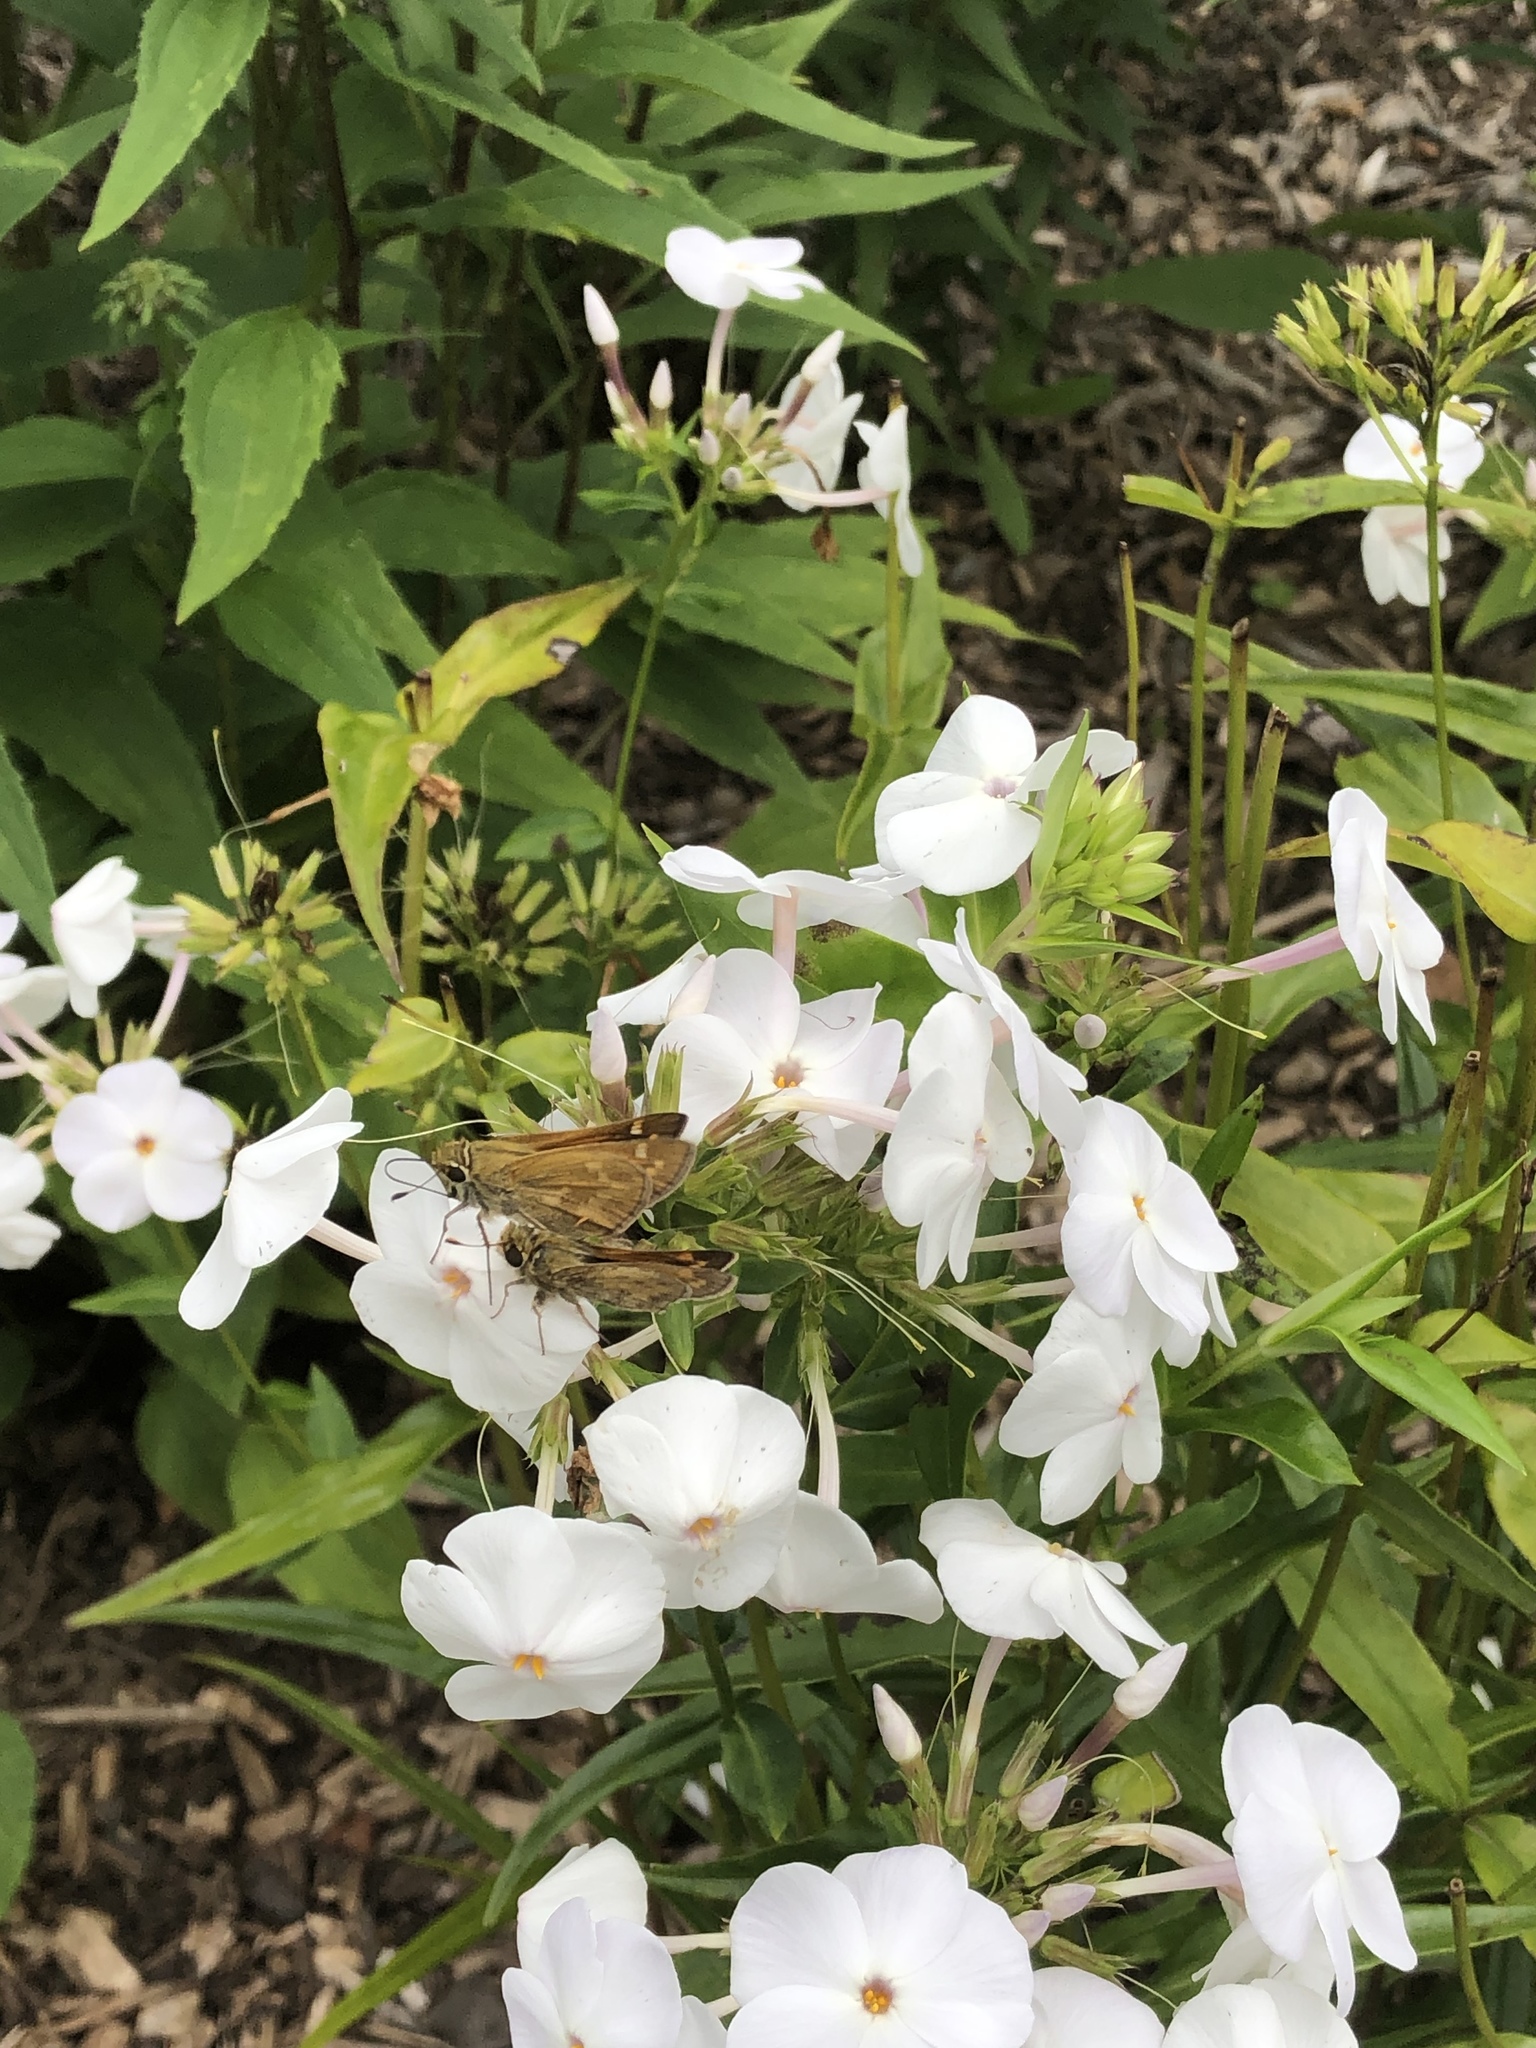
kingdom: Animalia
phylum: Arthropoda
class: Insecta
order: Lepidoptera
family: Hesperiidae
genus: Atalopedes
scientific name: Atalopedes
